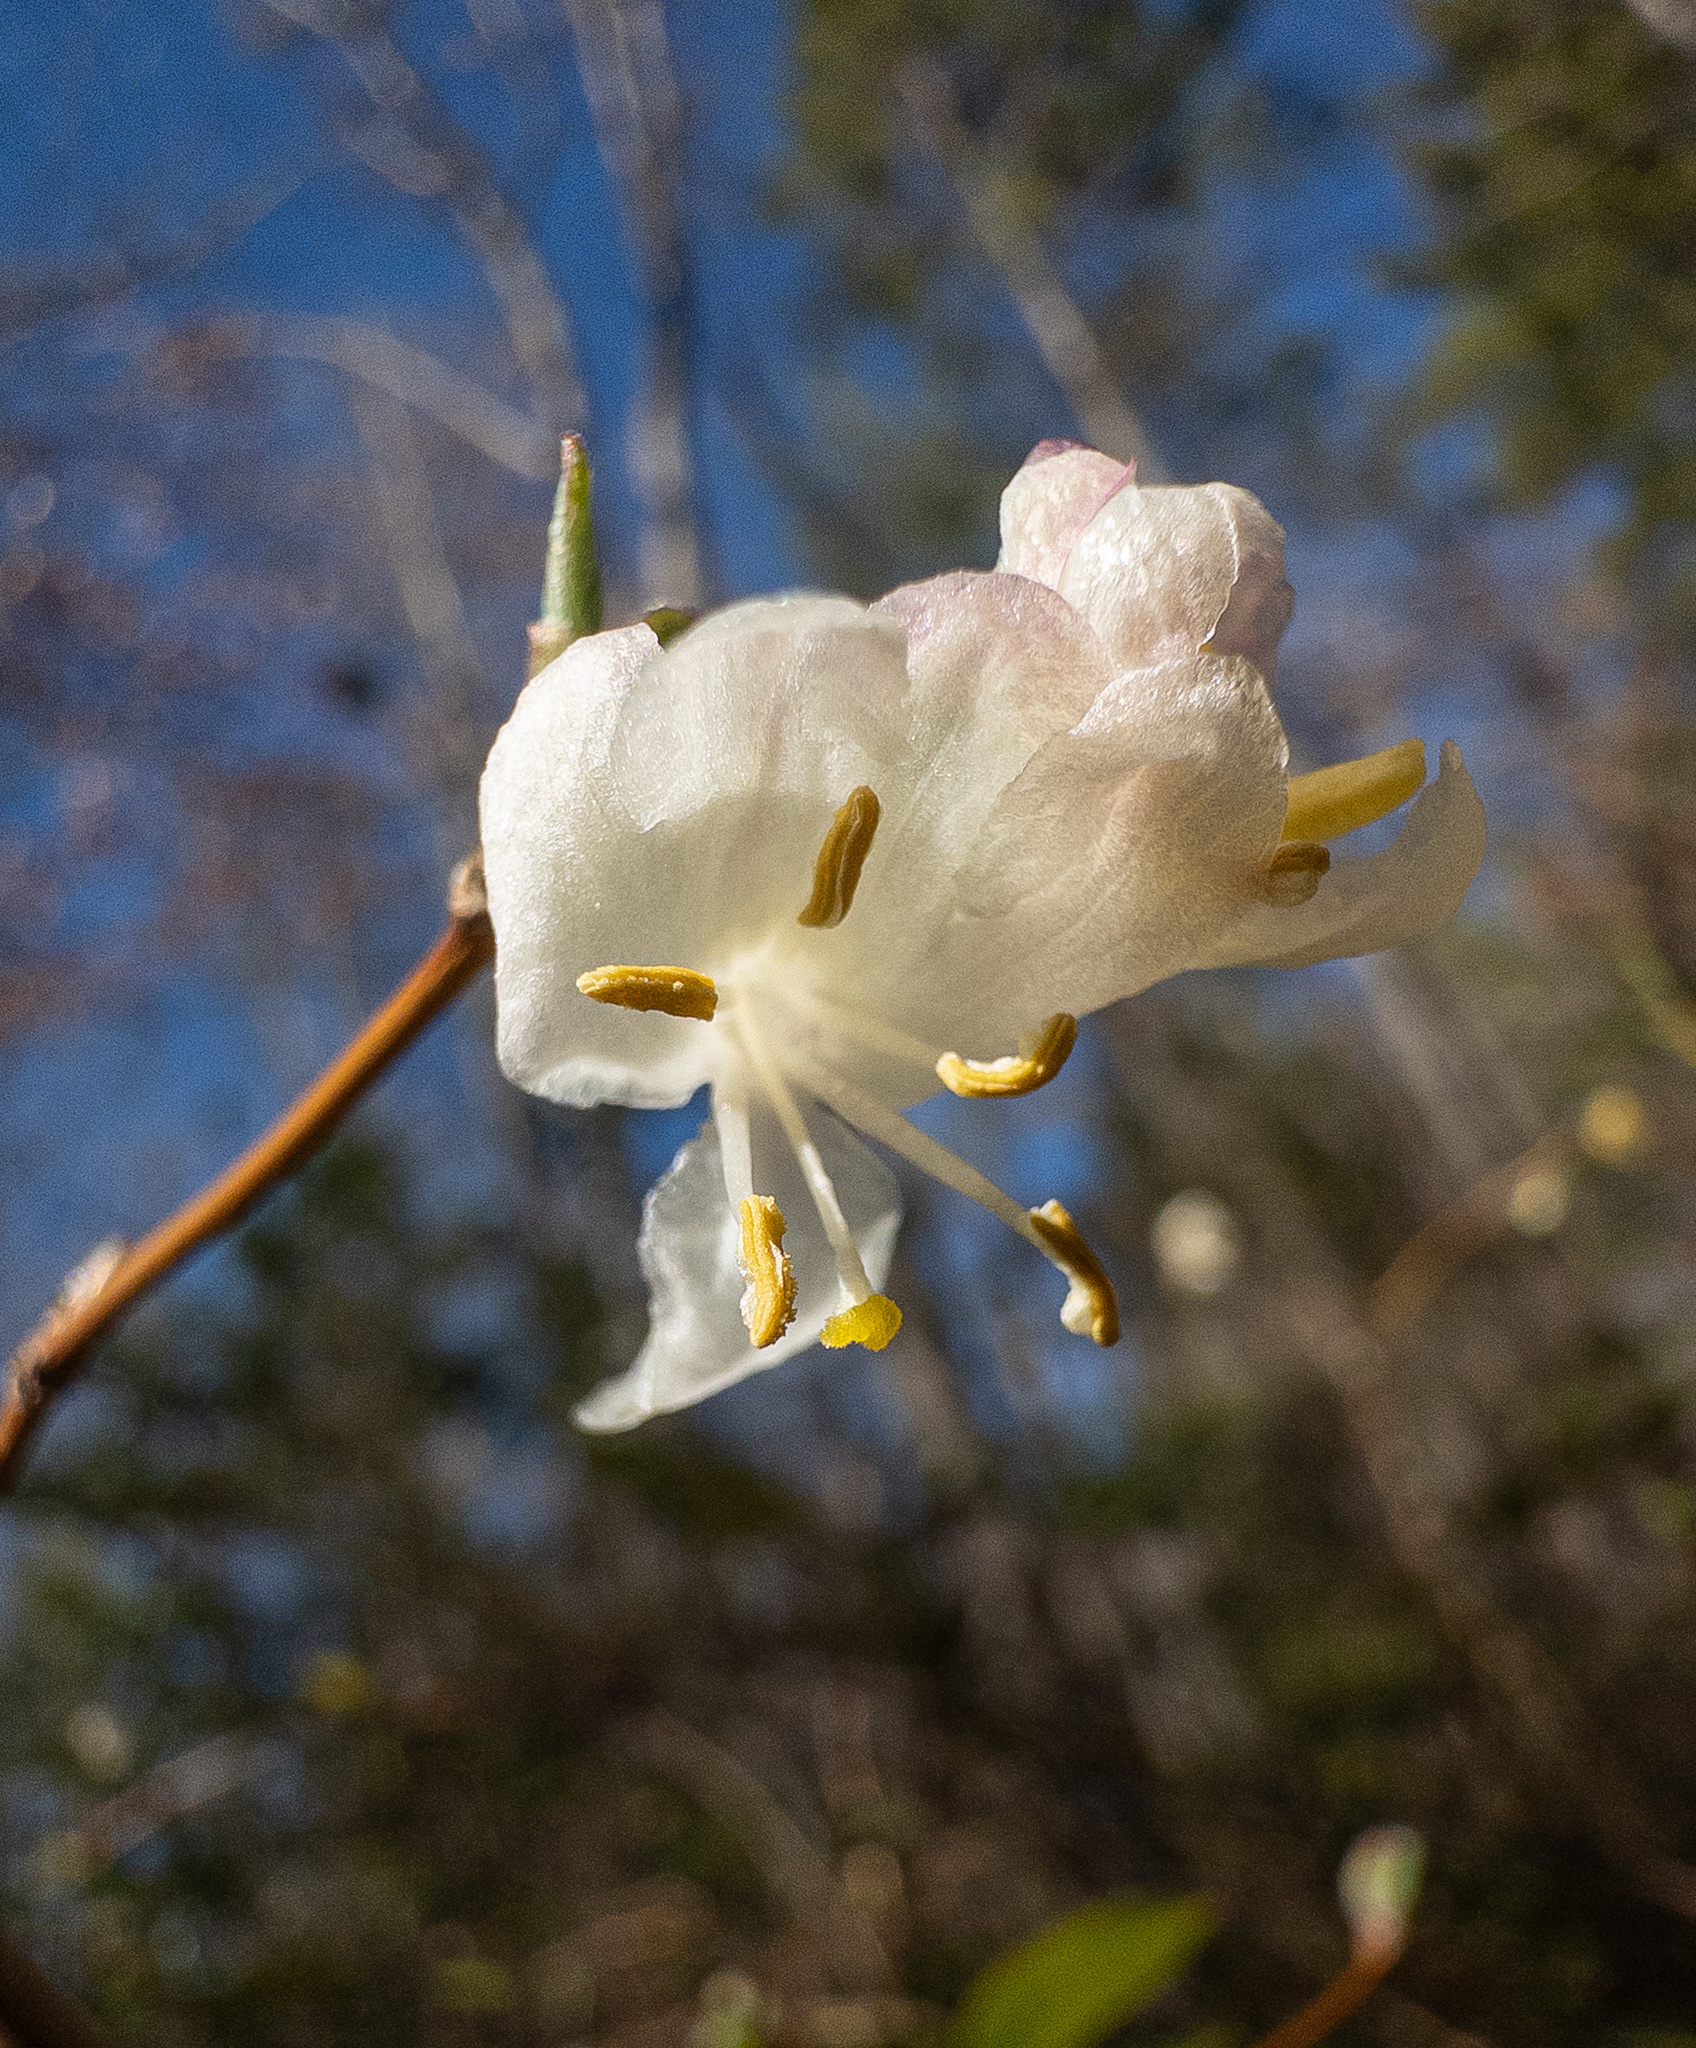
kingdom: Plantae
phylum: Tracheophyta
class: Magnoliopsida
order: Dipsacales
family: Caprifoliaceae
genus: Lonicera
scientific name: Lonicera fragrantissima
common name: Fragrant honeysuckle
